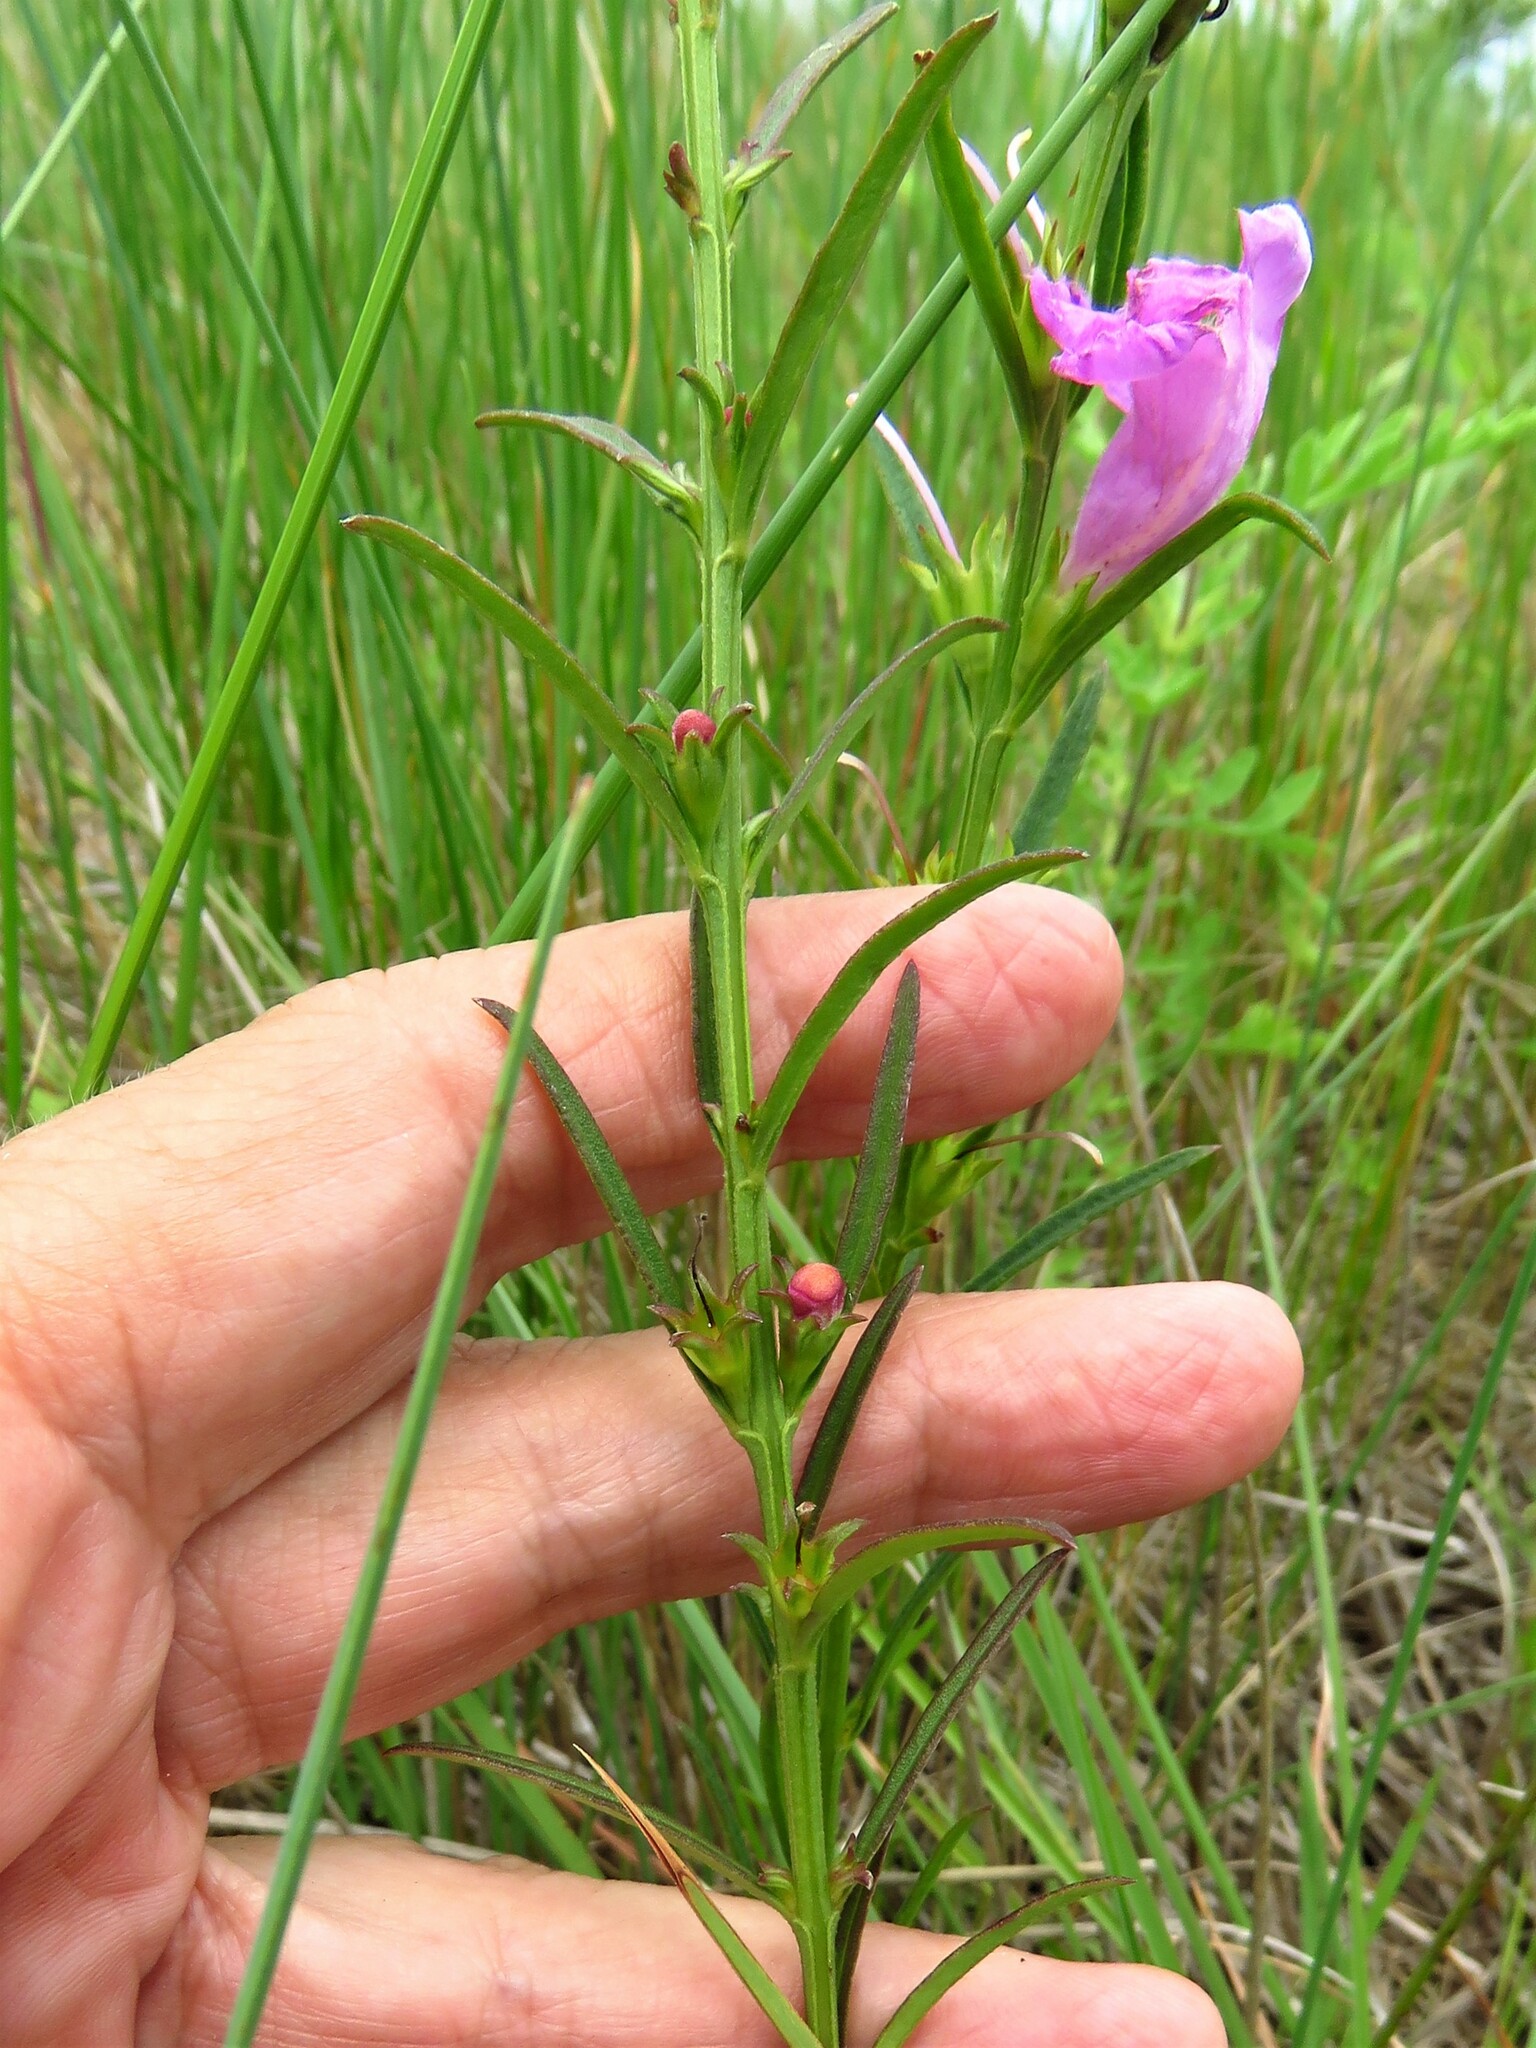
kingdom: Plantae
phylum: Tracheophyta
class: Magnoliopsida
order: Lamiales
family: Orobanchaceae
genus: Agalinis
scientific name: Agalinis heterophylla
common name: Prairie agalinis
